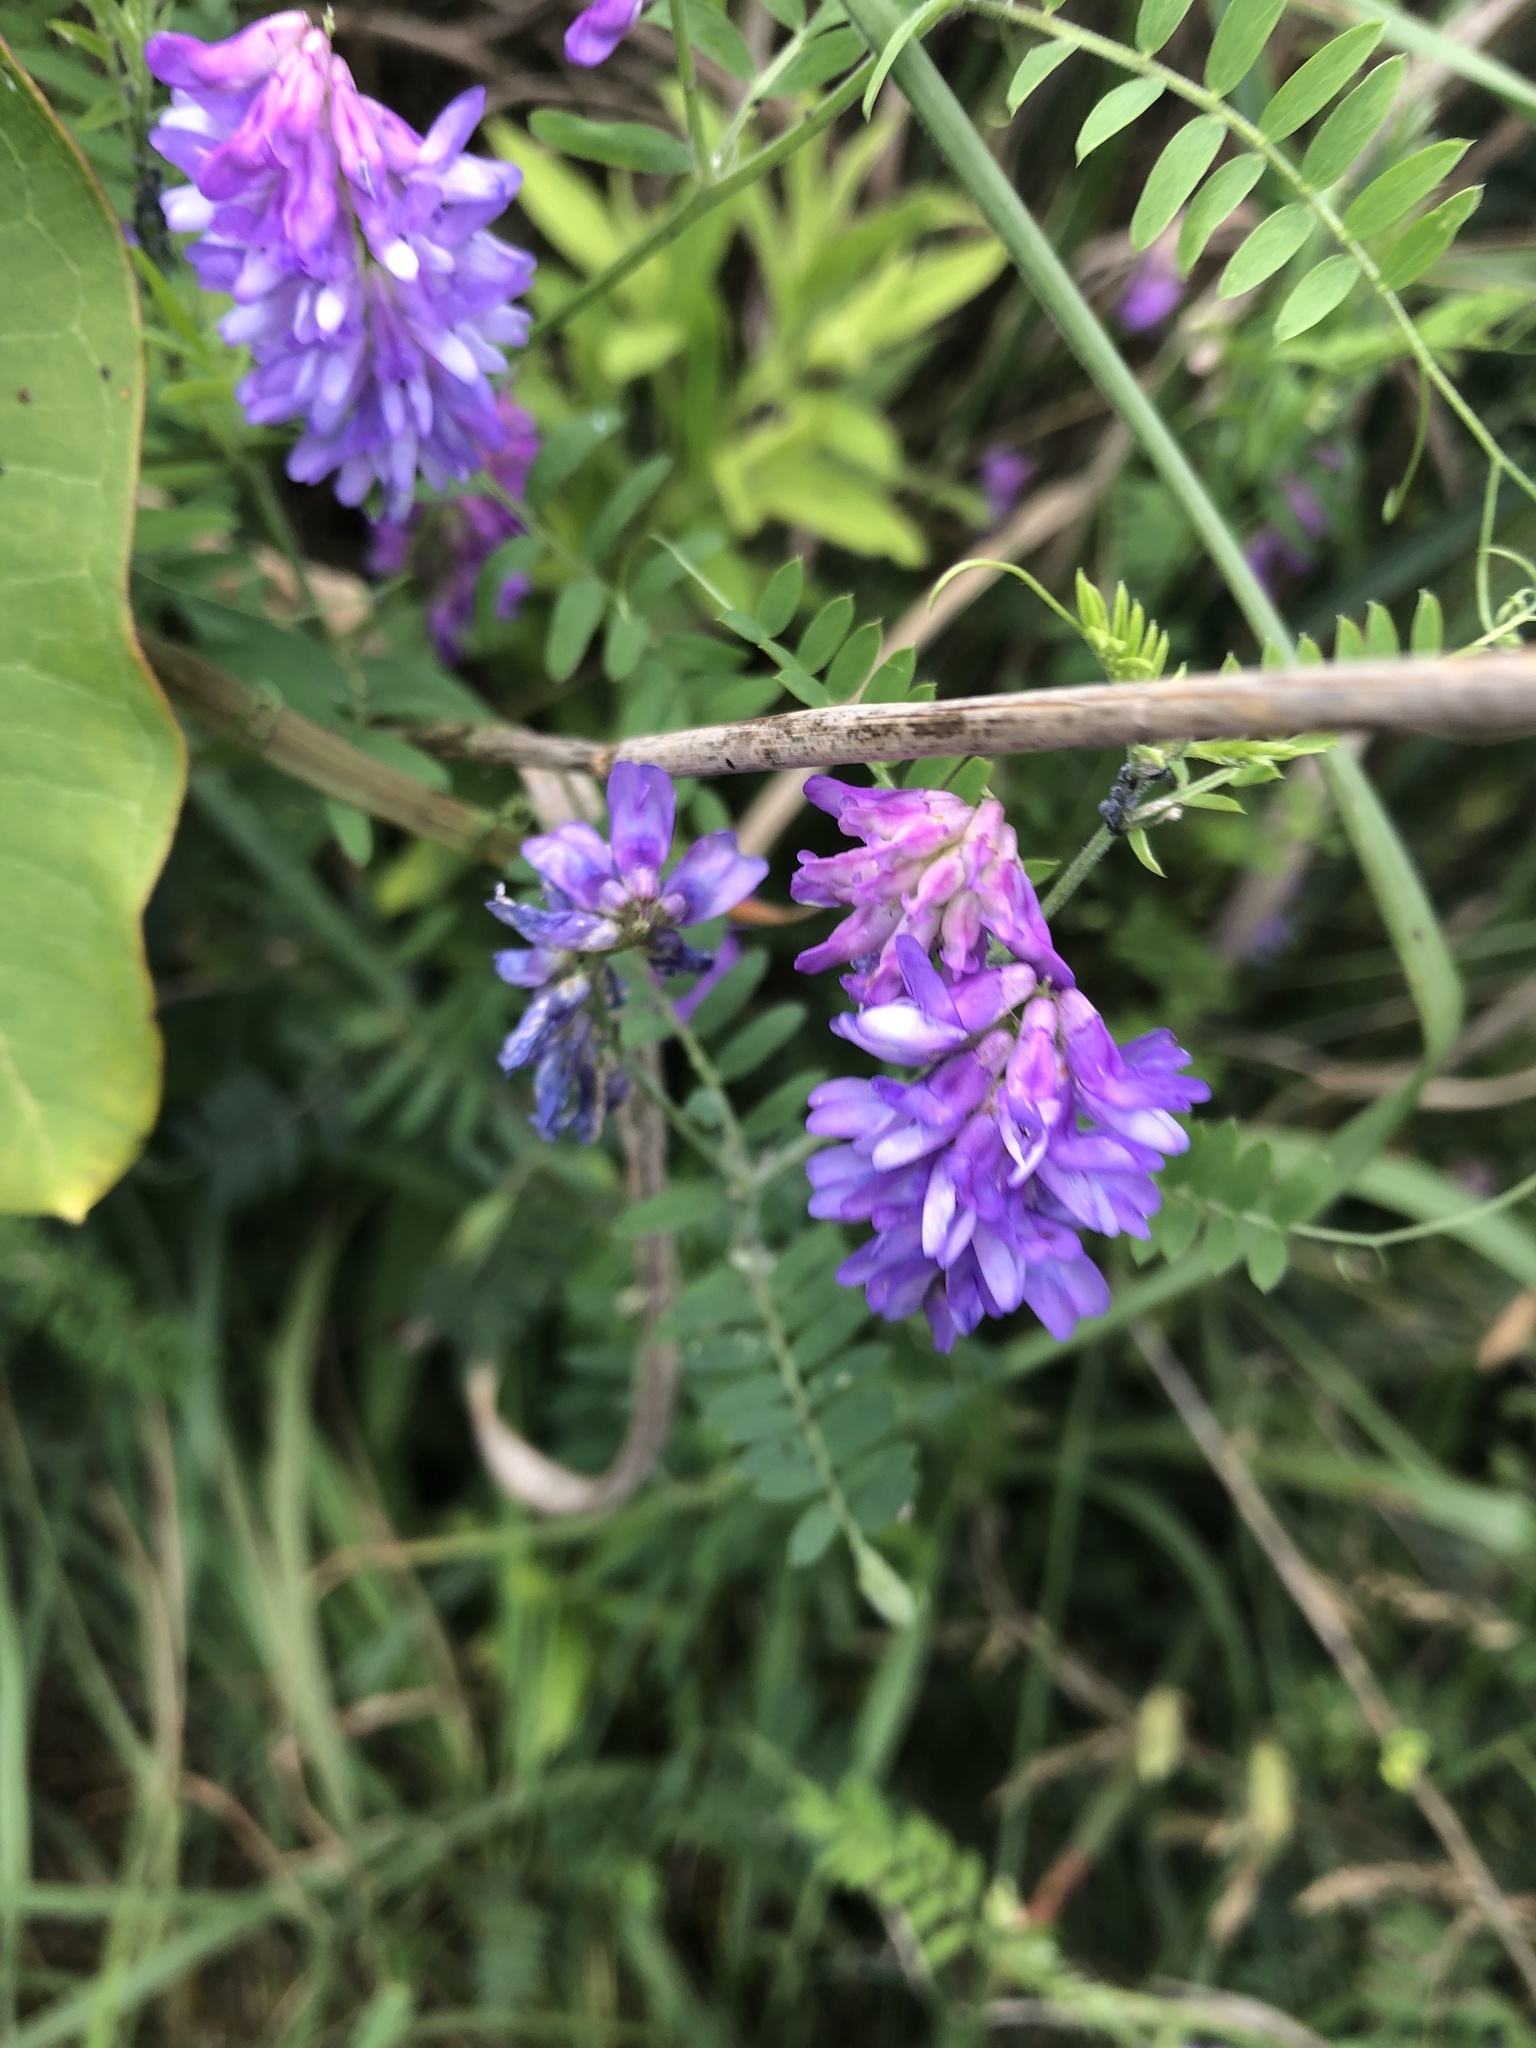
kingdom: Plantae
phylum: Tracheophyta
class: Magnoliopsida
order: Fabales
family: Fabaceae
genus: Vicia
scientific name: Vicia cracca
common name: Bird vetch
